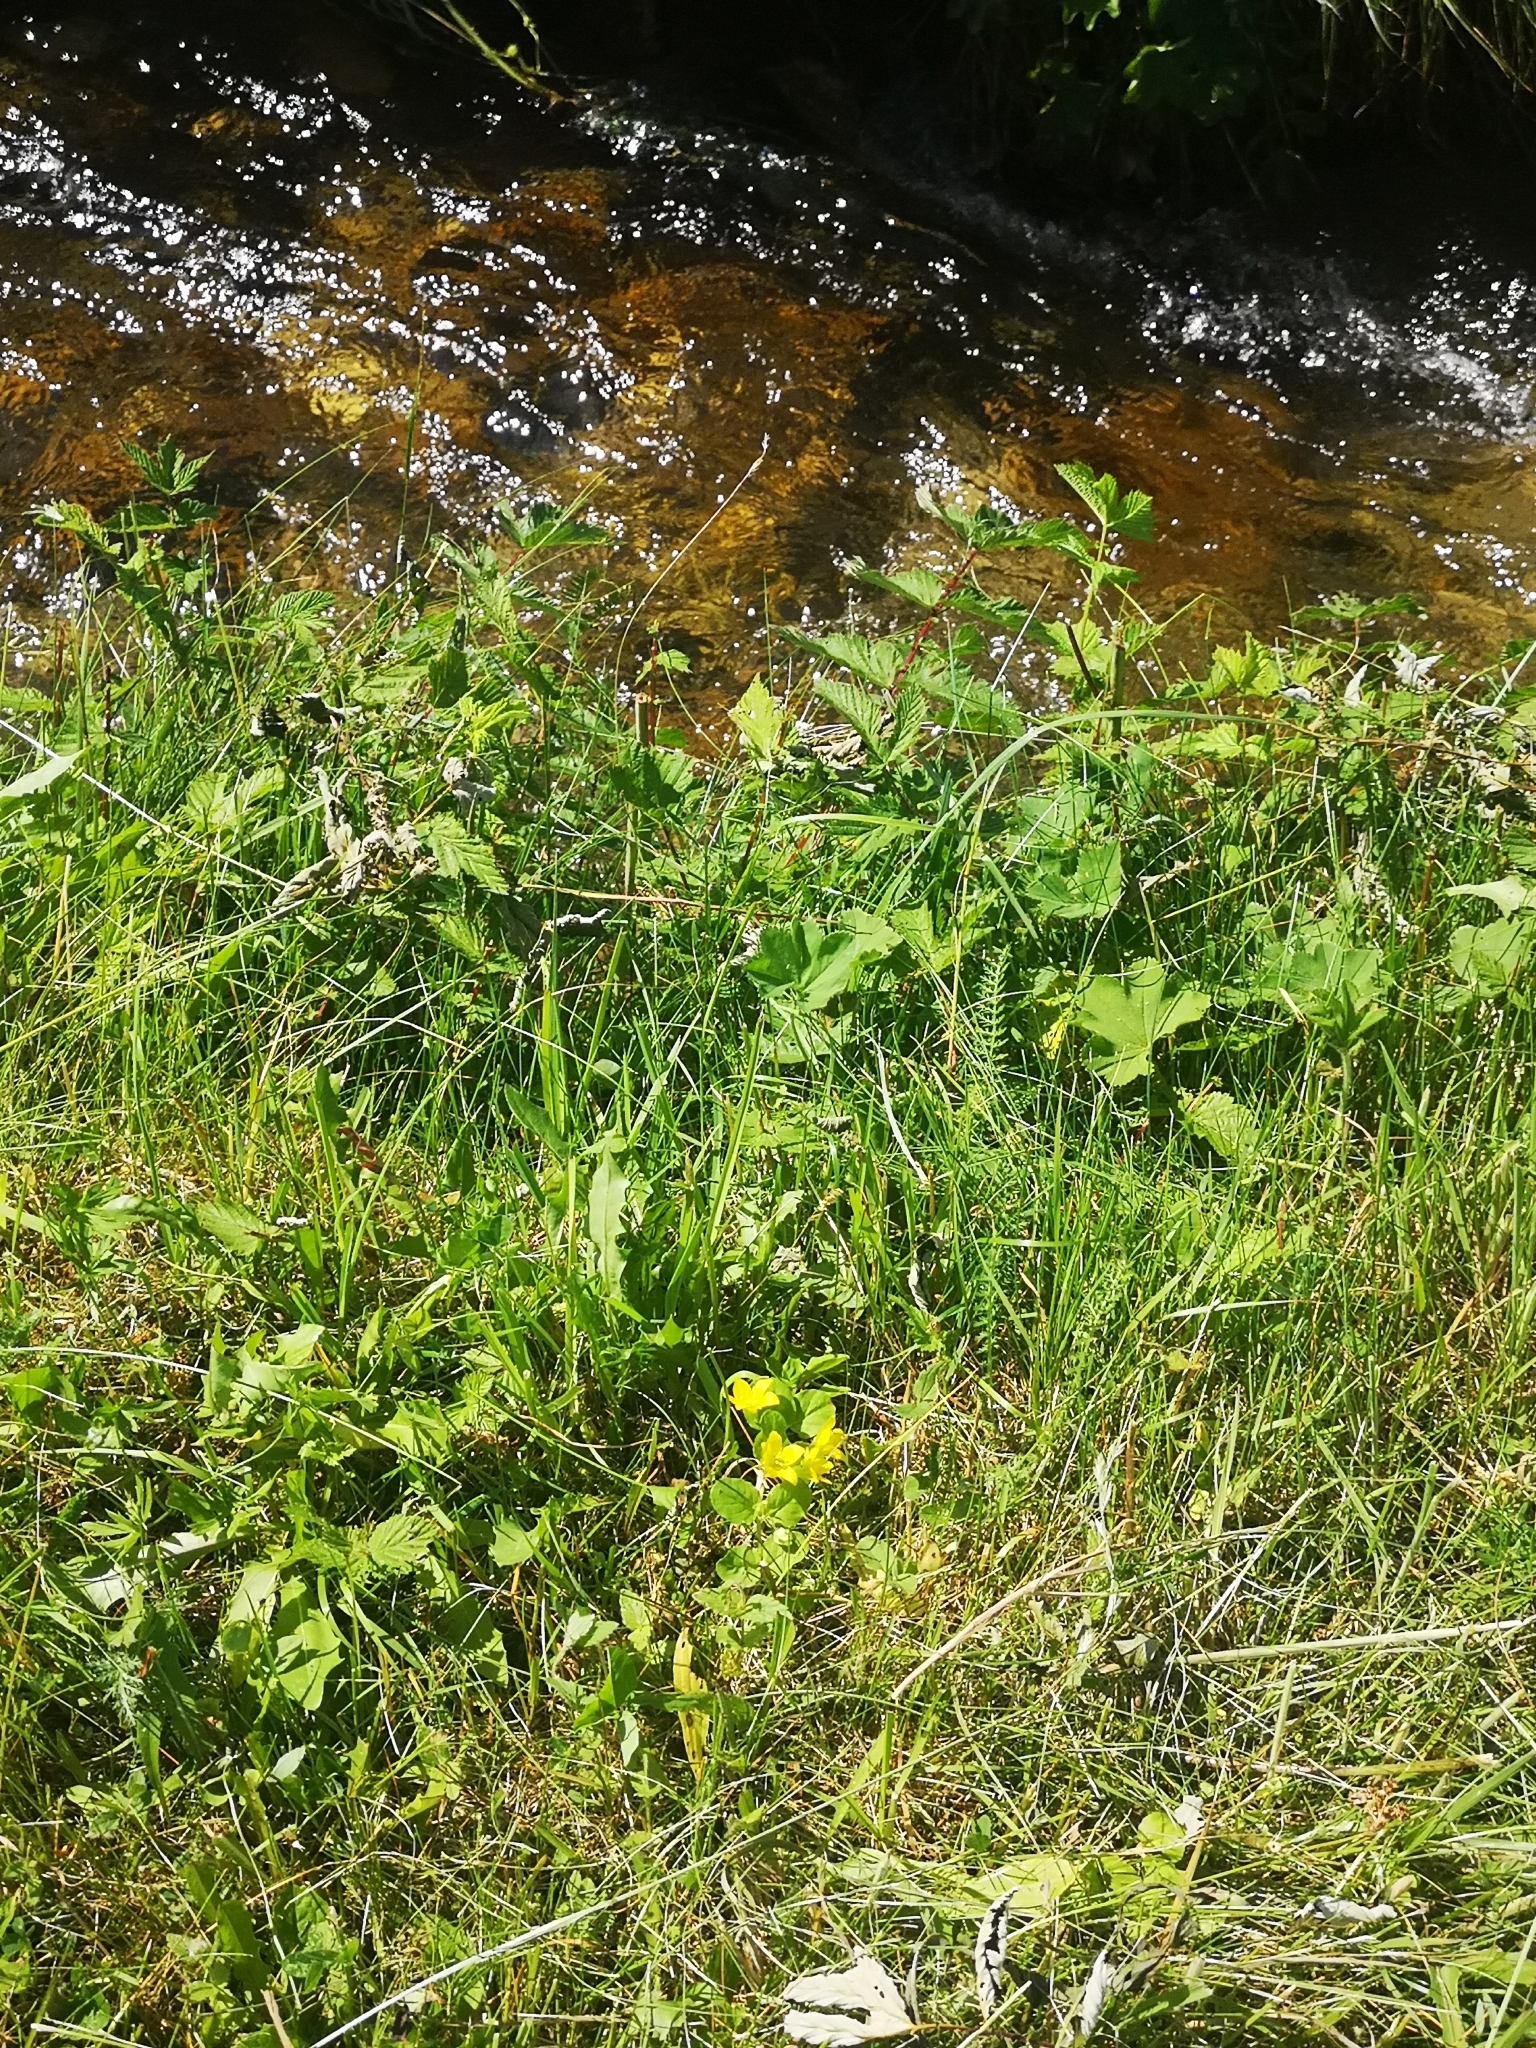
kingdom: Plantae
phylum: Tracheophyta
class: Magnoliopsida
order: Ericales
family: Primulaceae
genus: Lysimachia
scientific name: Lysimachia nummularia
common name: Moneywort
